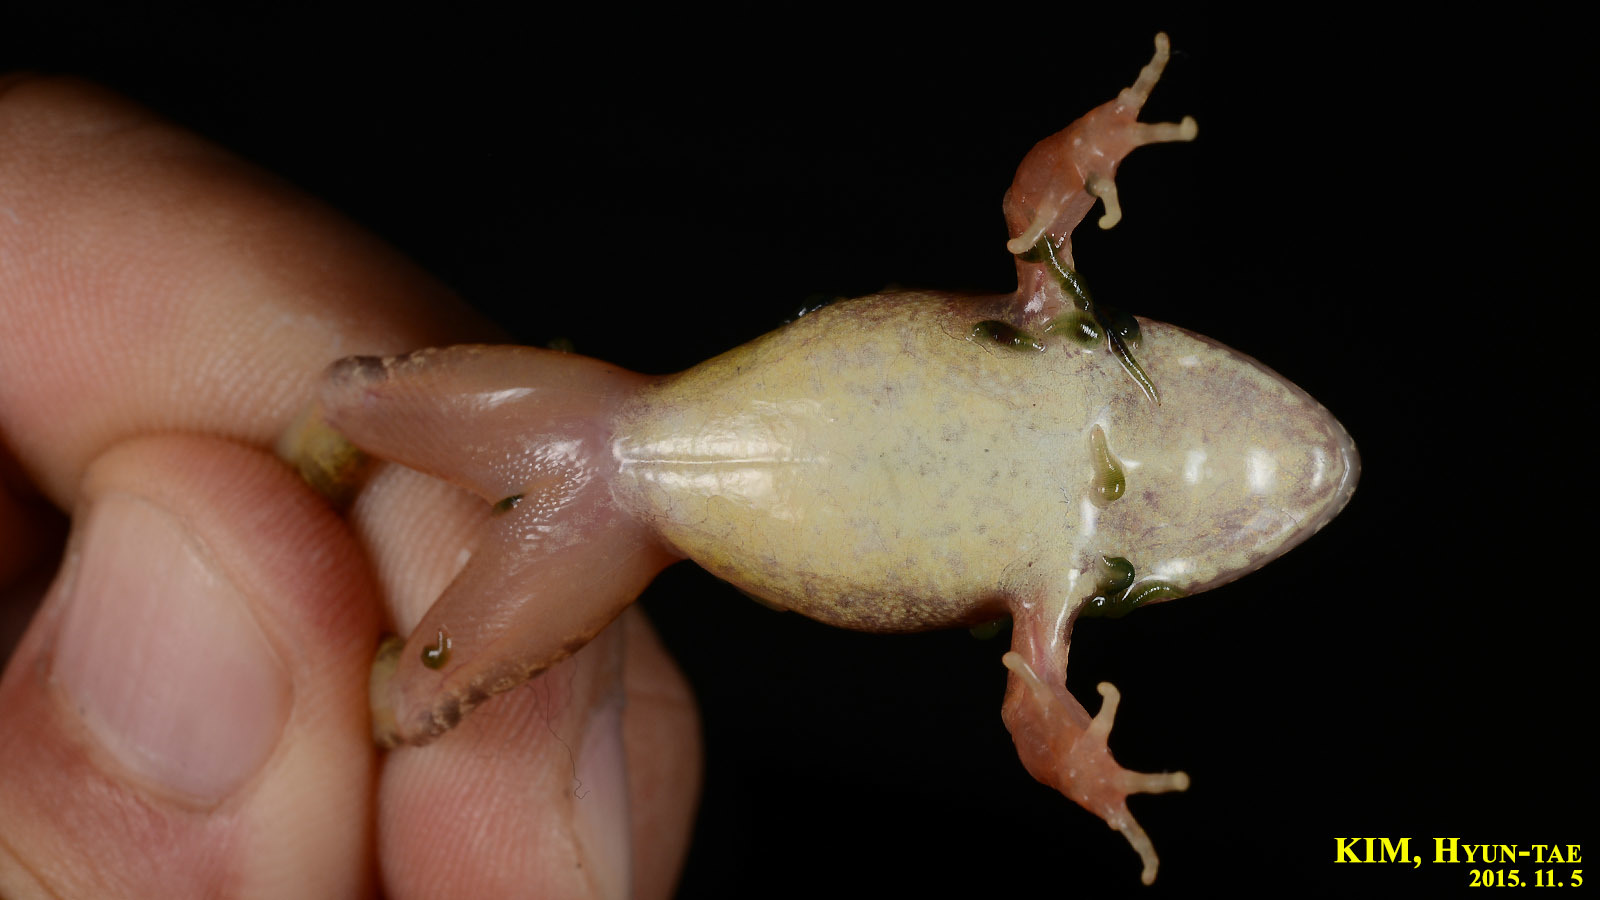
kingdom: Animalia
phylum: Chordata
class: Amphibia
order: Anura
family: Ranidae
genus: Rana
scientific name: Rana uenoi
